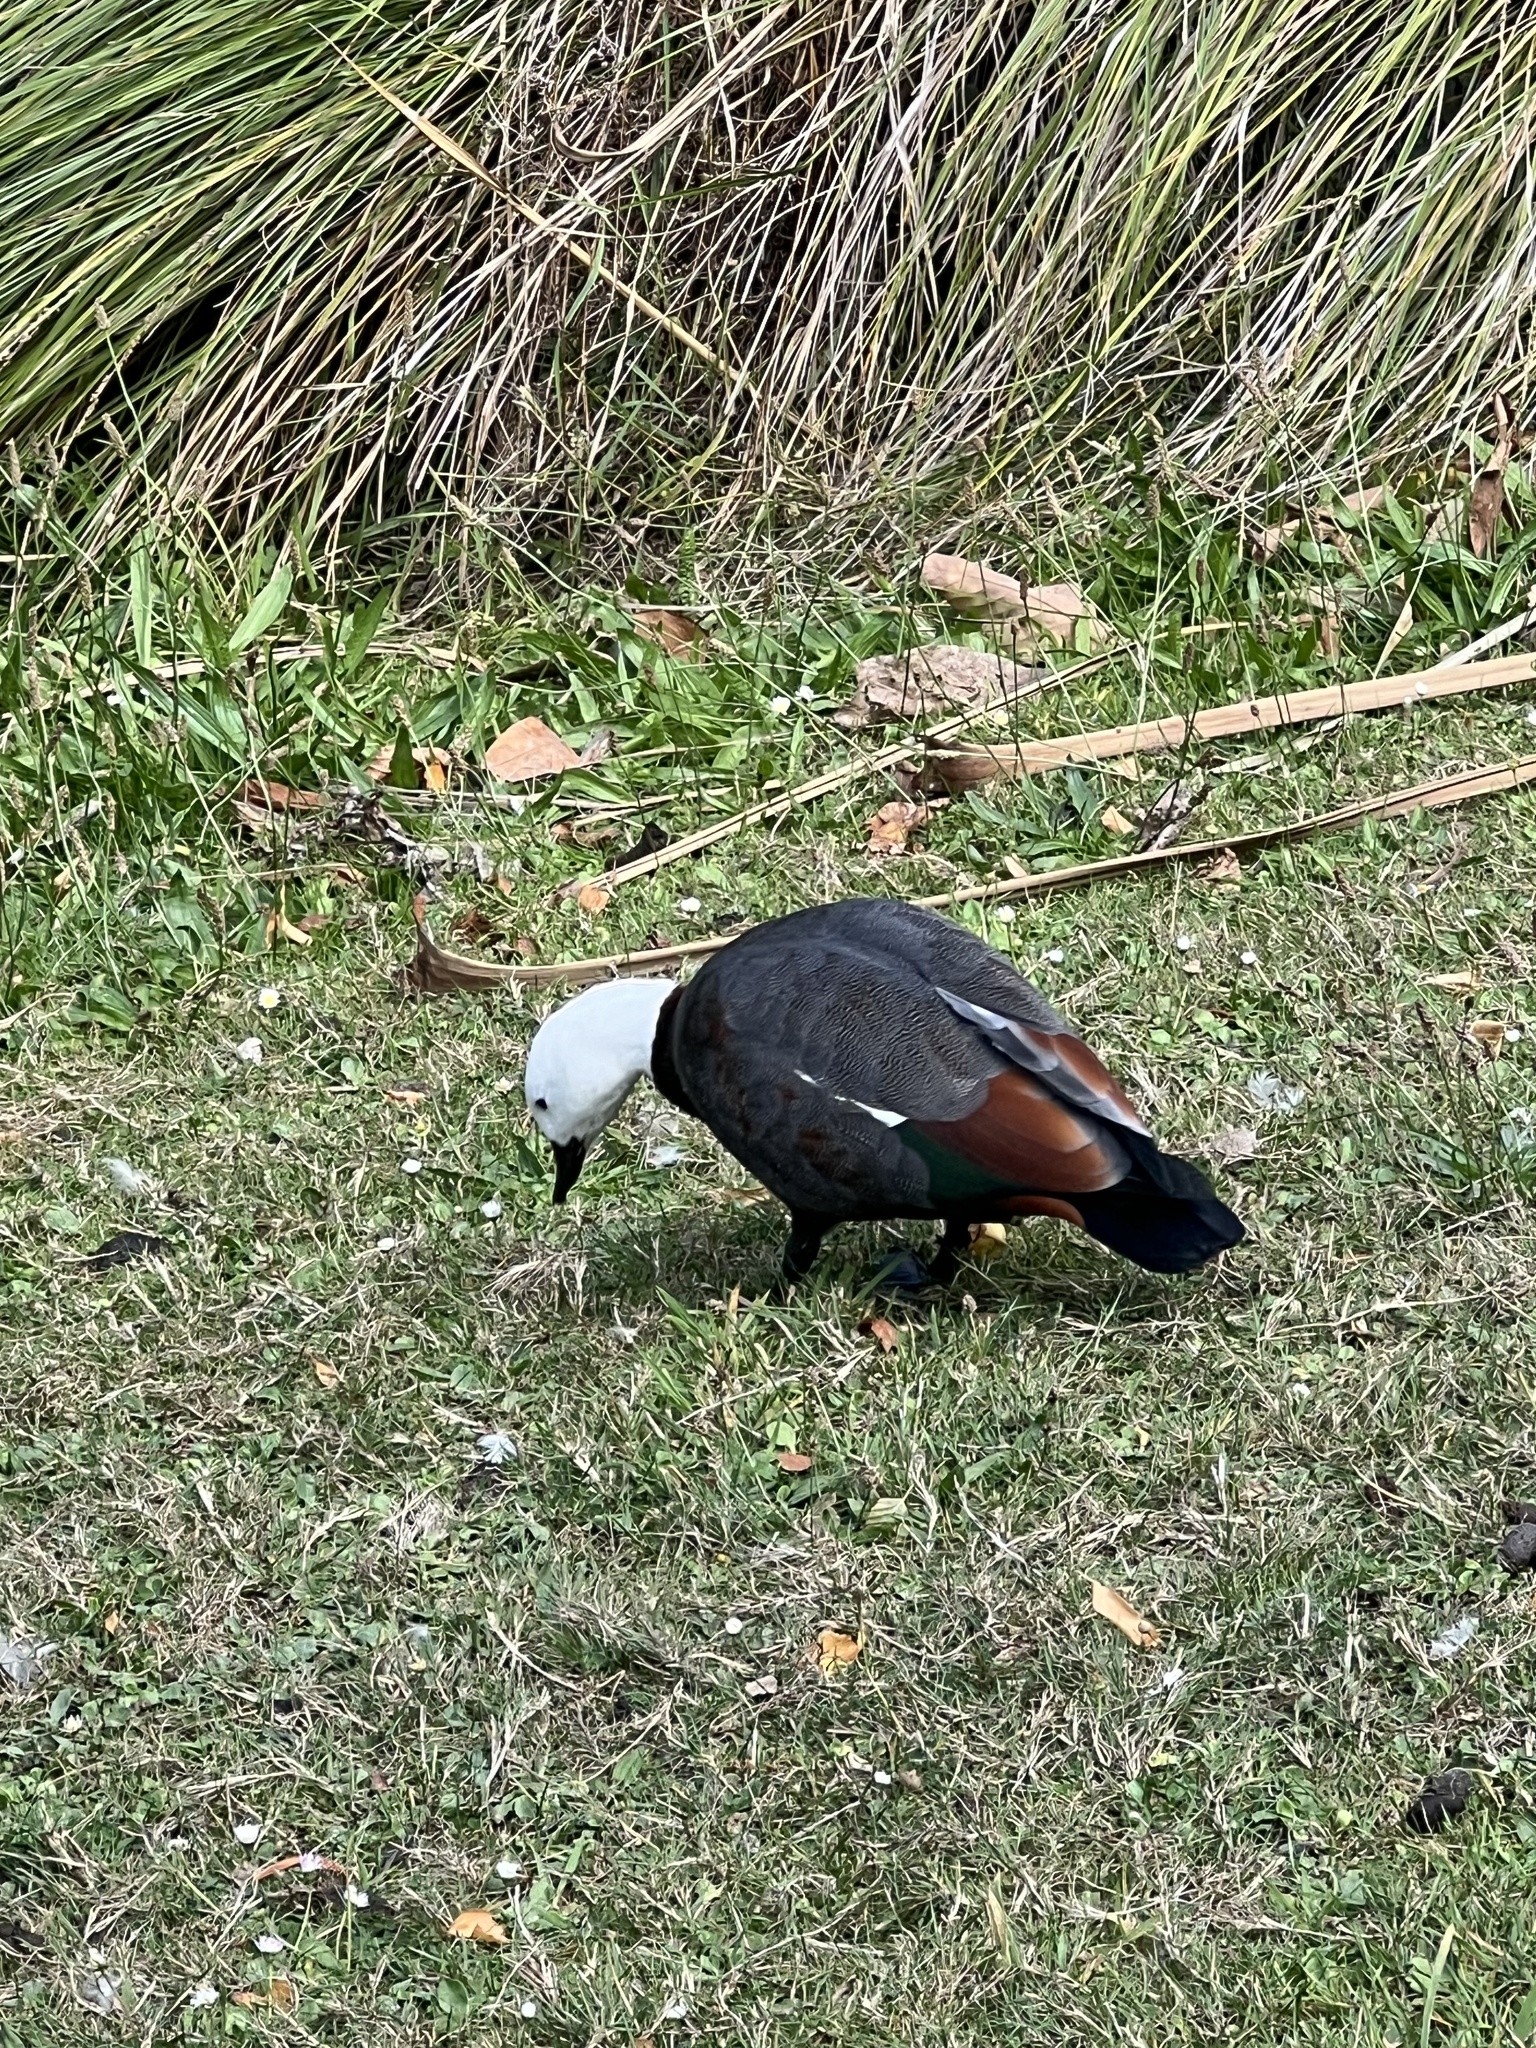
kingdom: Animalia
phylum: Chordata
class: Aves
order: Anseriformes
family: Anatidae
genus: Tadorna
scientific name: Tadorna variegata
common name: Paradise shelduck
